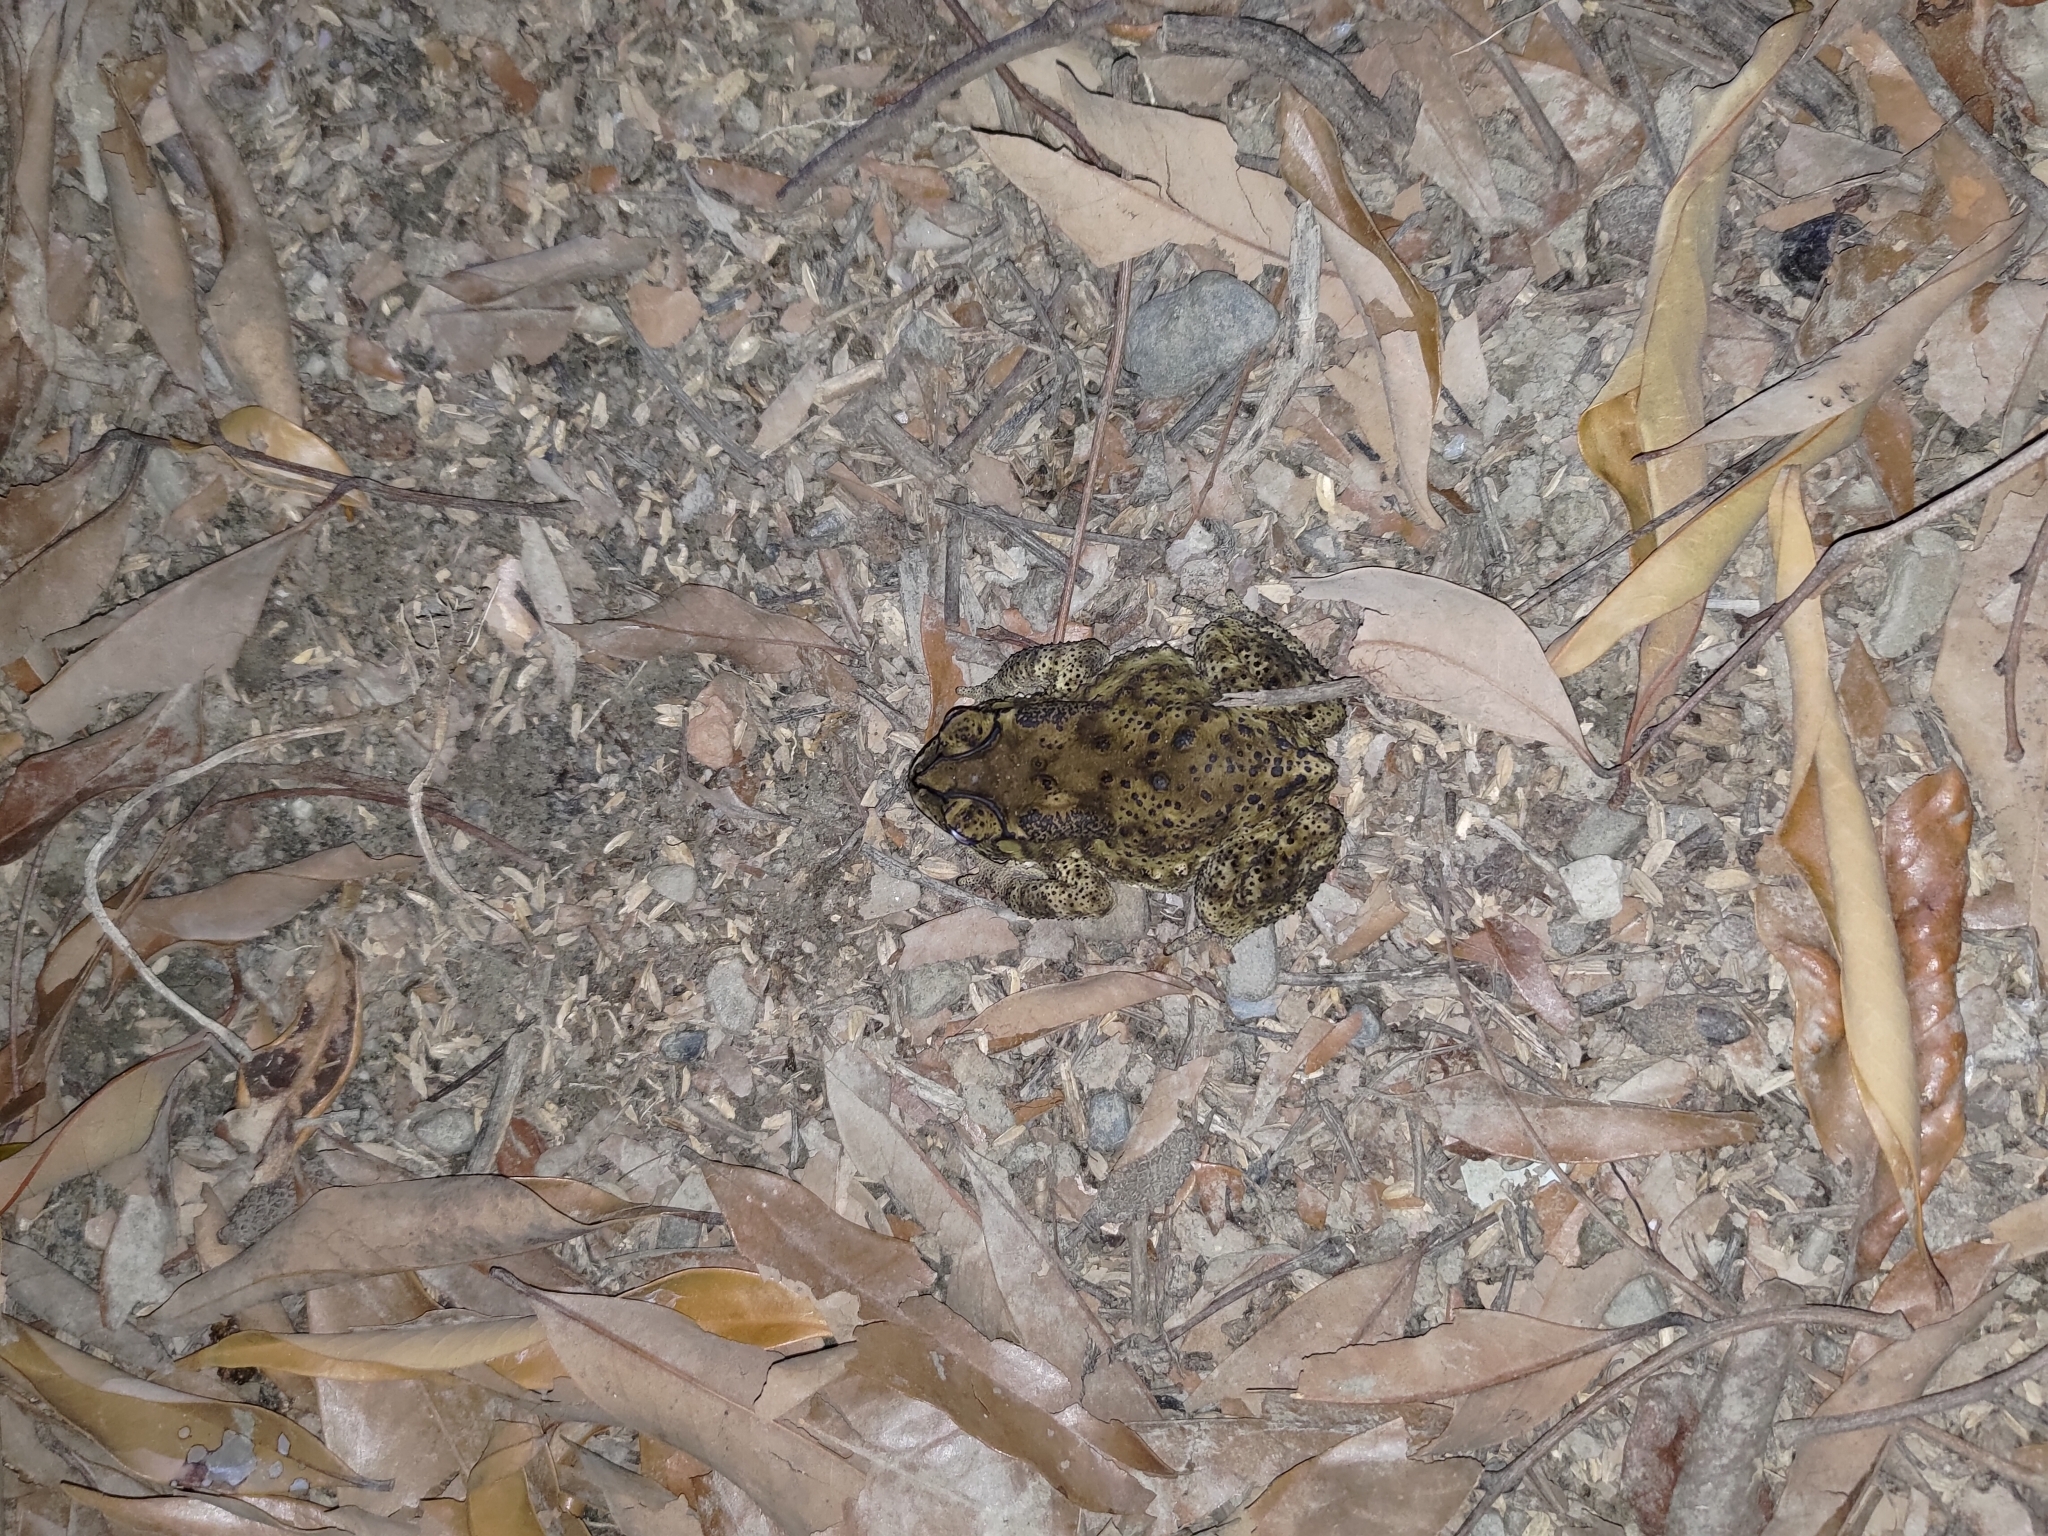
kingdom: Animalia
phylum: Chordata
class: Amphibia
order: Anura
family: Bufonidae
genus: Duttaphrynus
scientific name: Duttaphrynus melanostictus
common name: Common sunda toad
